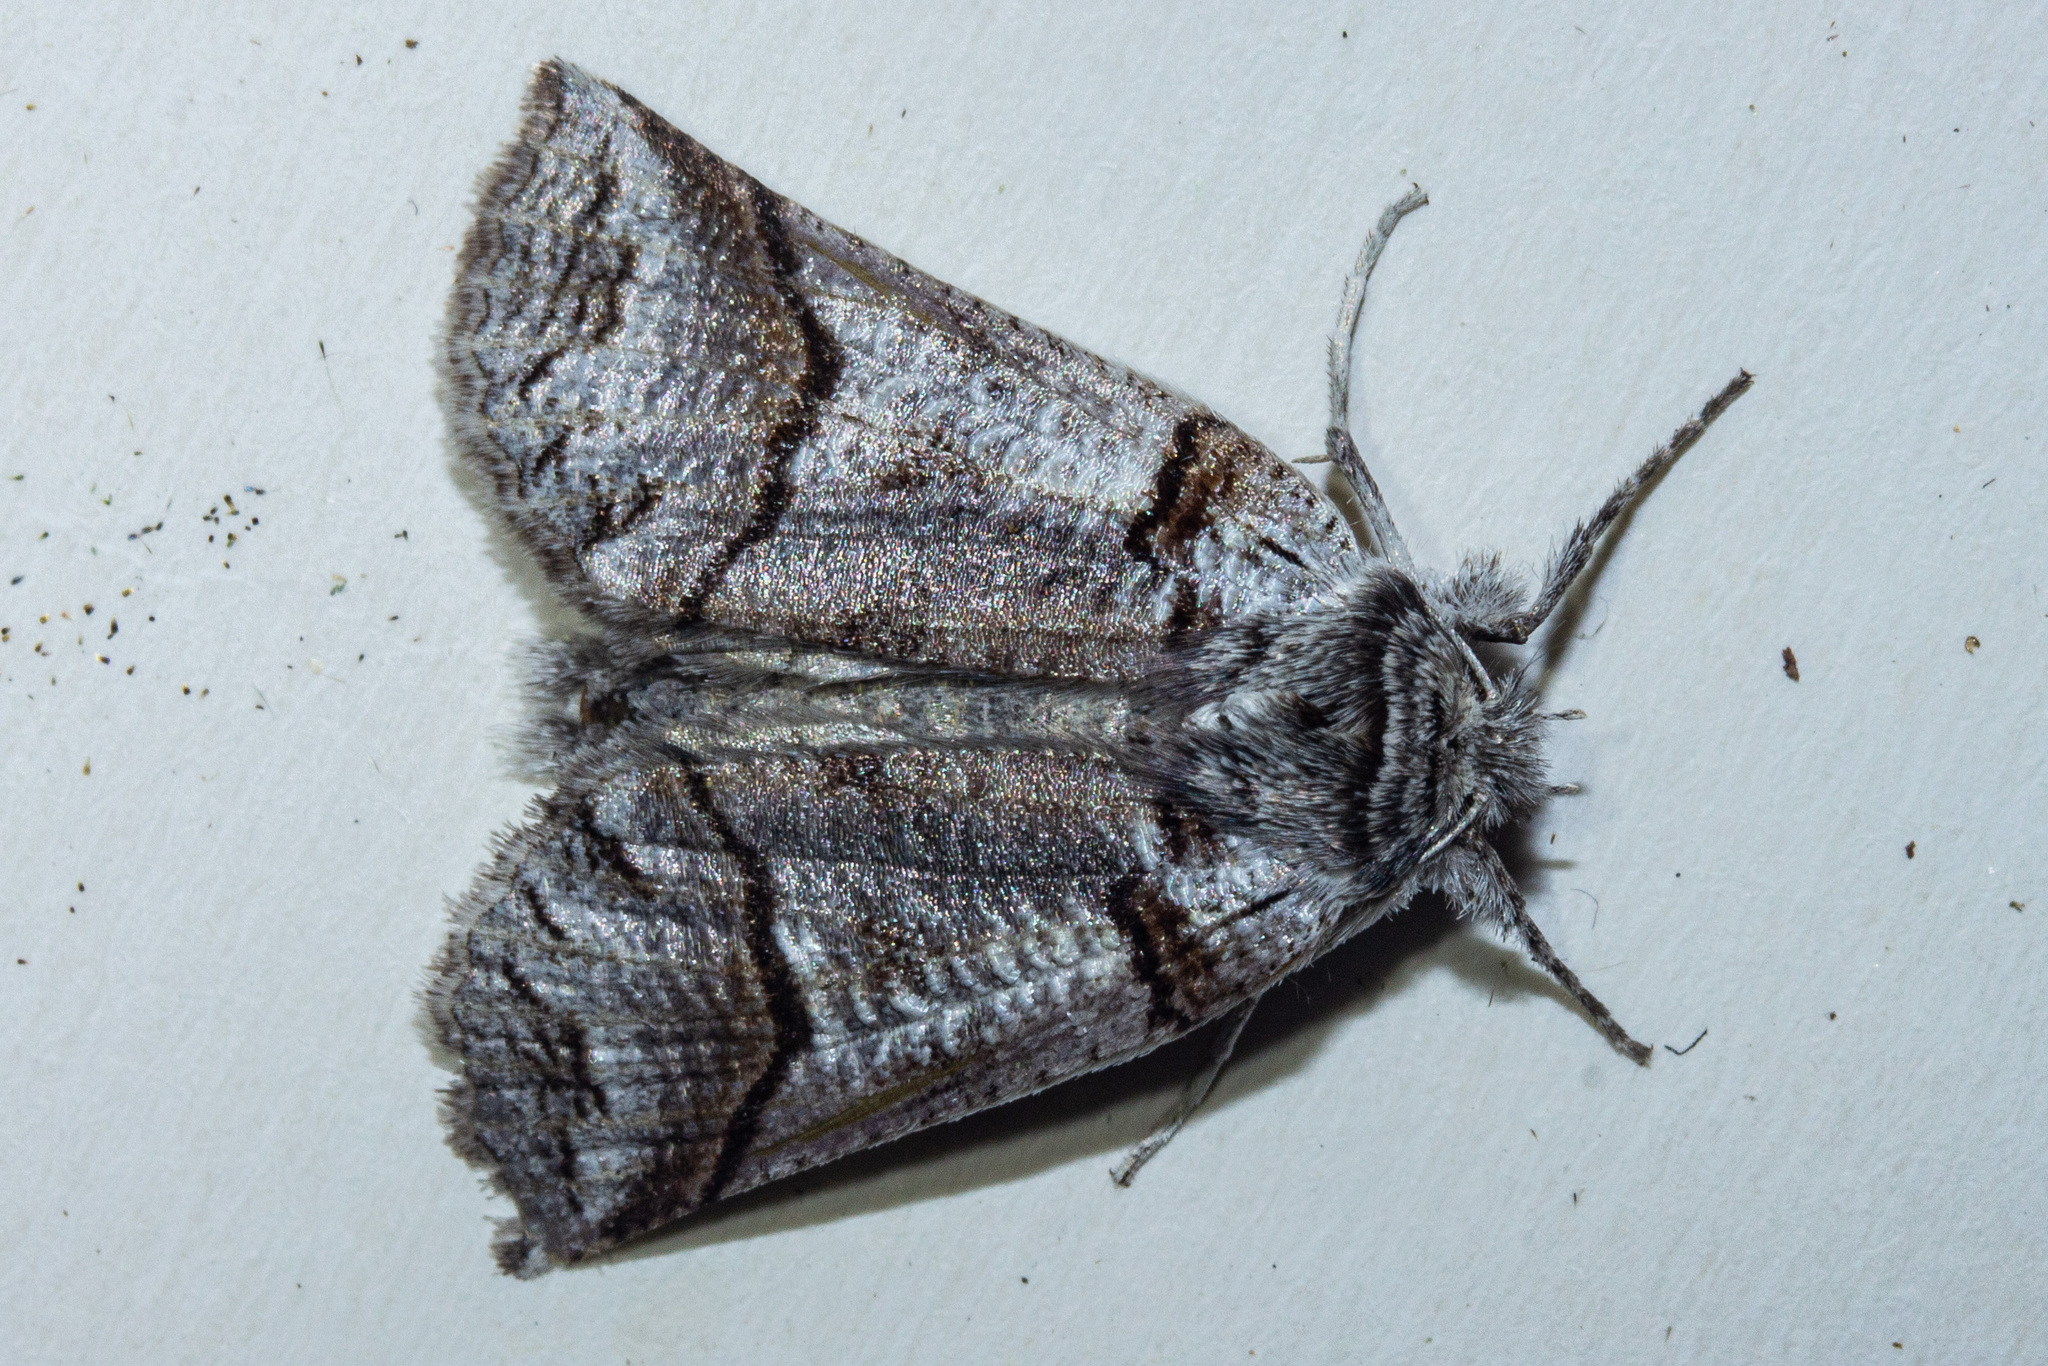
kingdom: Animalia
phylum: Arthropoda
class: Insecta
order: Lepidoptera
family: Geometridae
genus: Declana
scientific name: Declana
